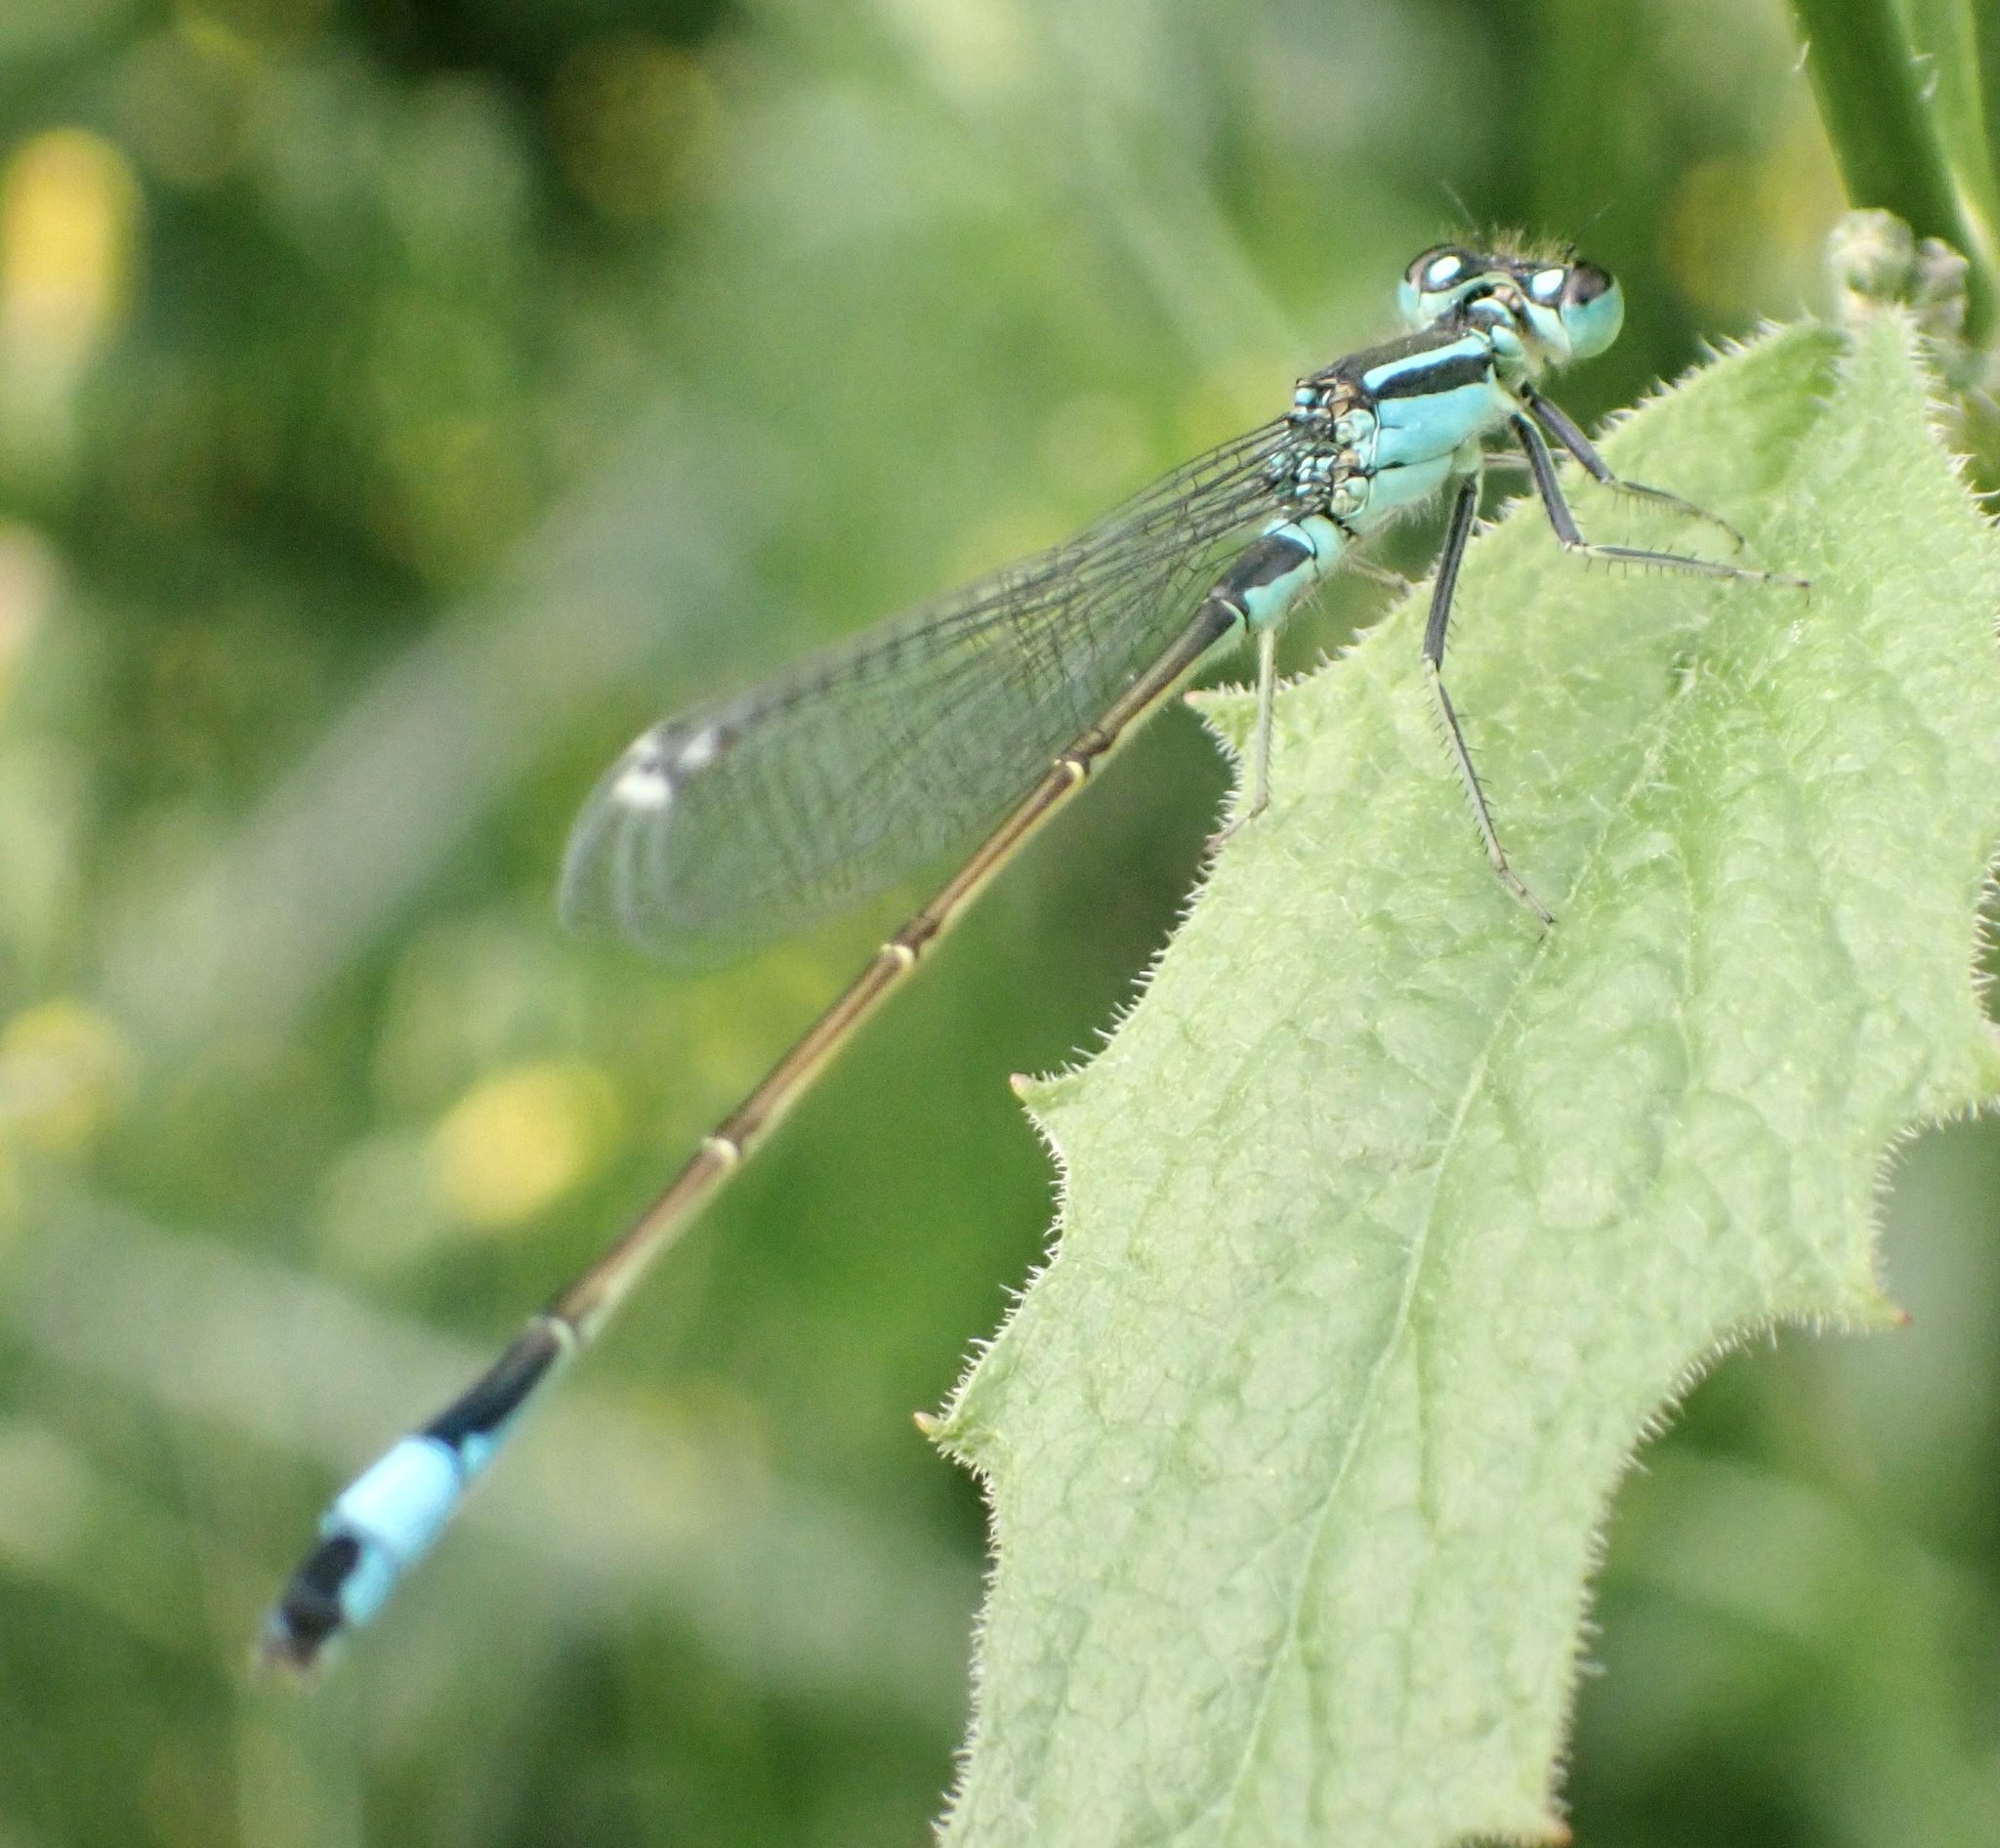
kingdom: Animalia
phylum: Arthropoda
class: Insecta
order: Odonata
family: Coenagrionidae
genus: Ischnura
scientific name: Ischnura elegans
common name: Blue-tailed damselfly
